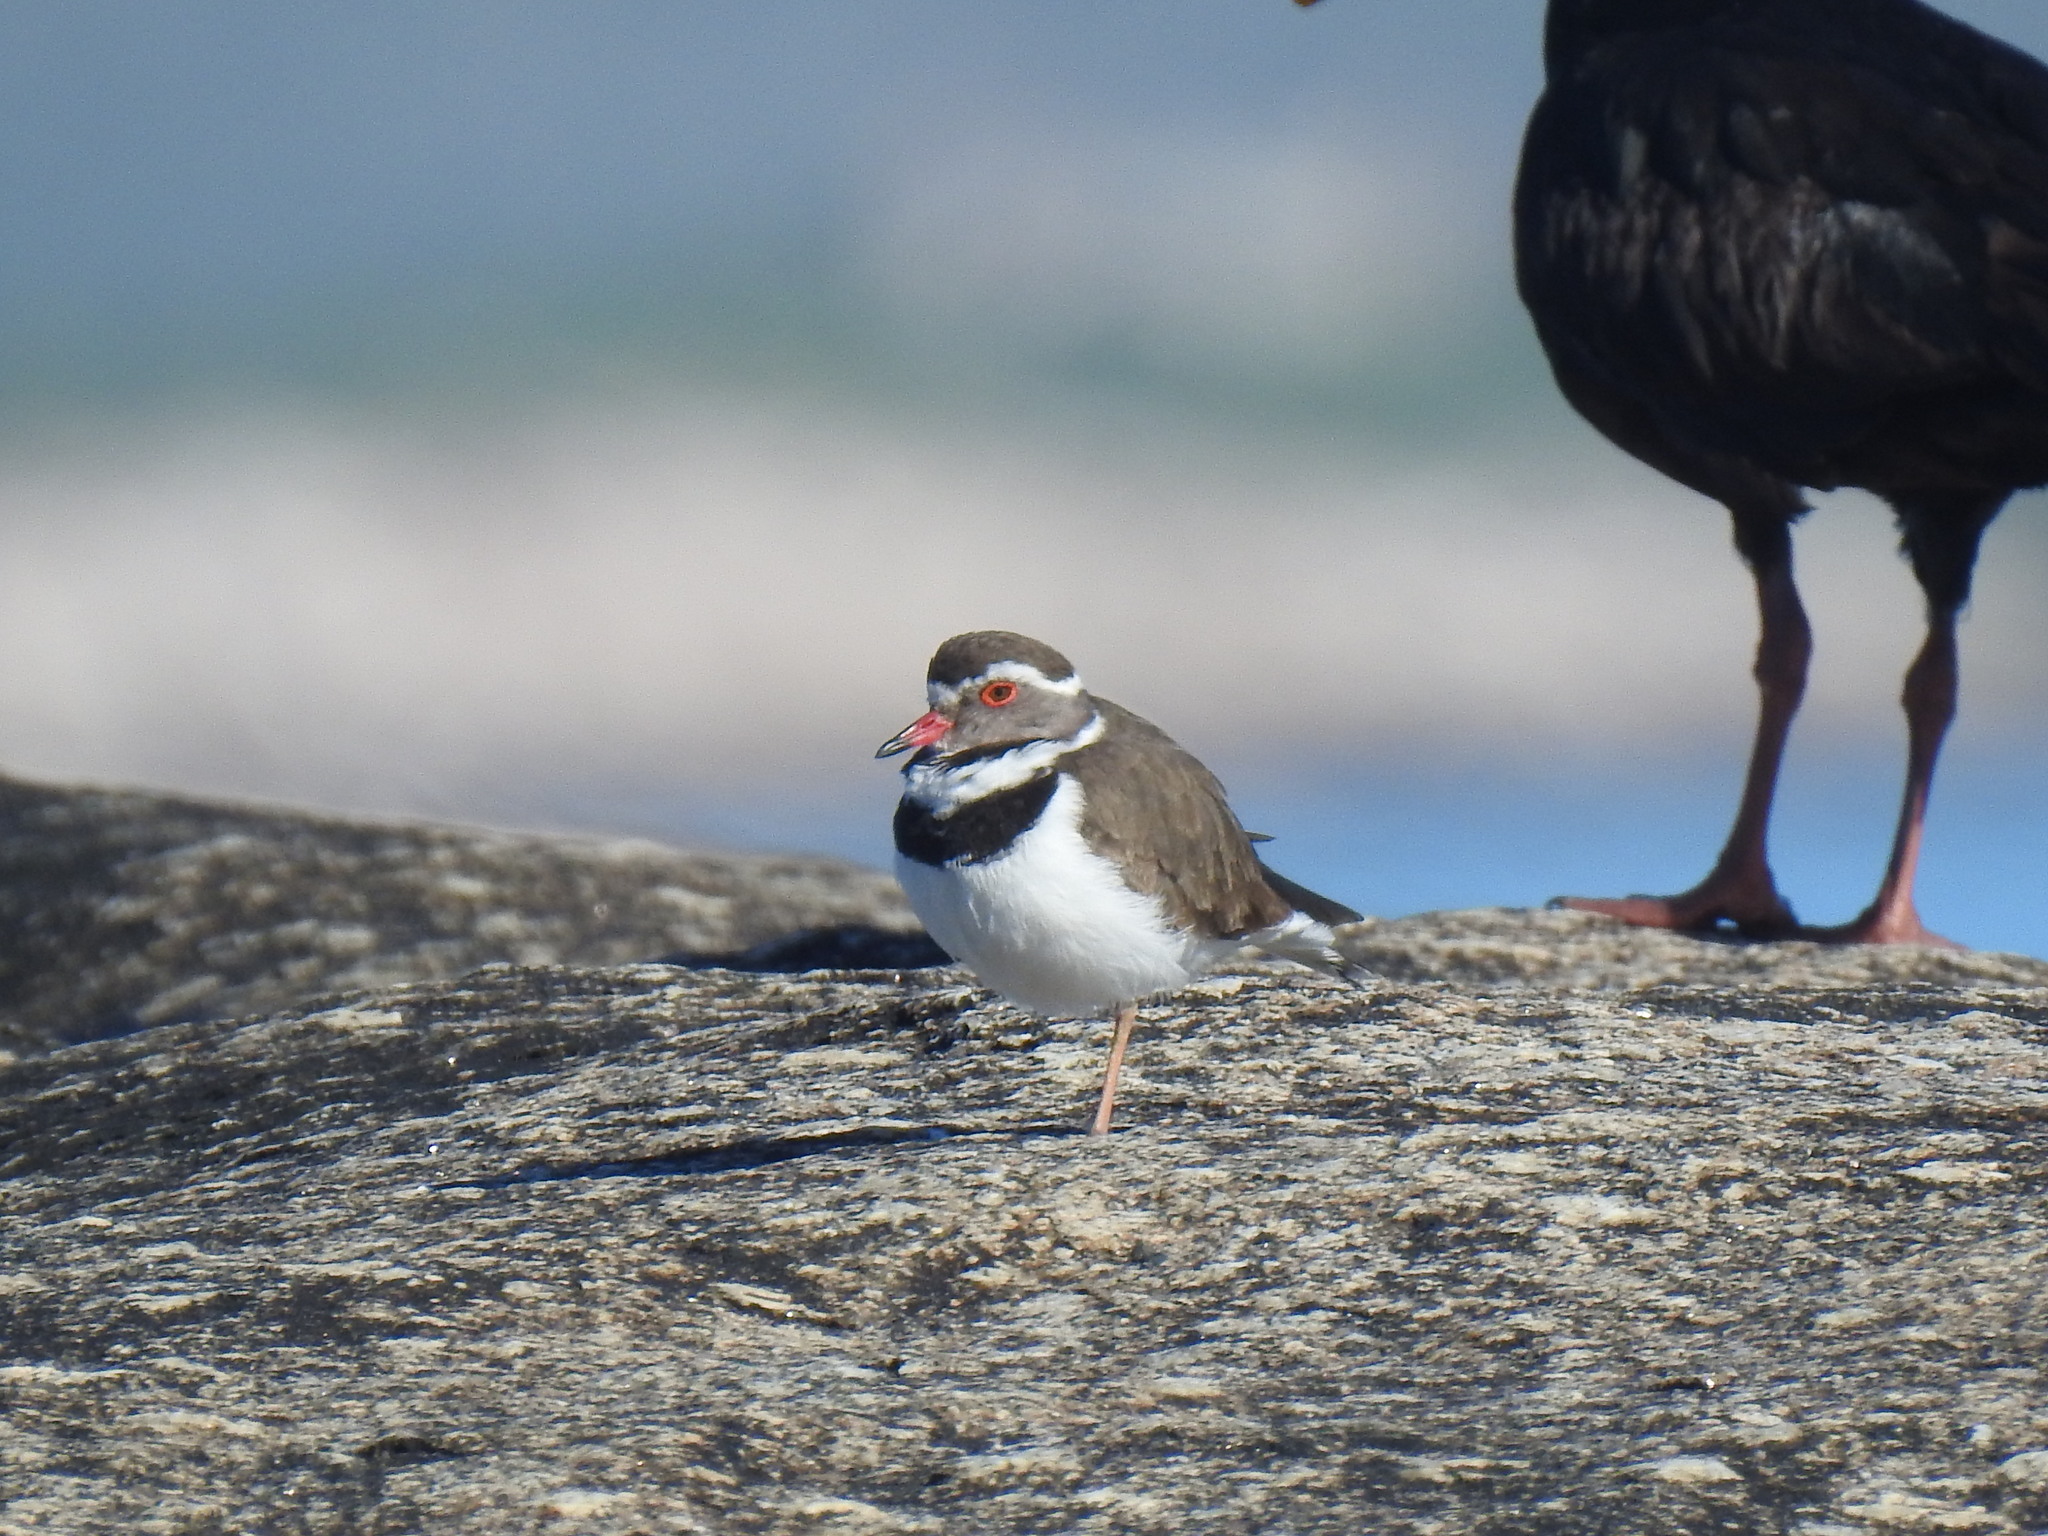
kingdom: Animalia
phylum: Chordata
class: Aves
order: Charadriiformes
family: Charadriidae
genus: Charadrius
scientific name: Charadrius tricollaris
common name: Three-banded plover
